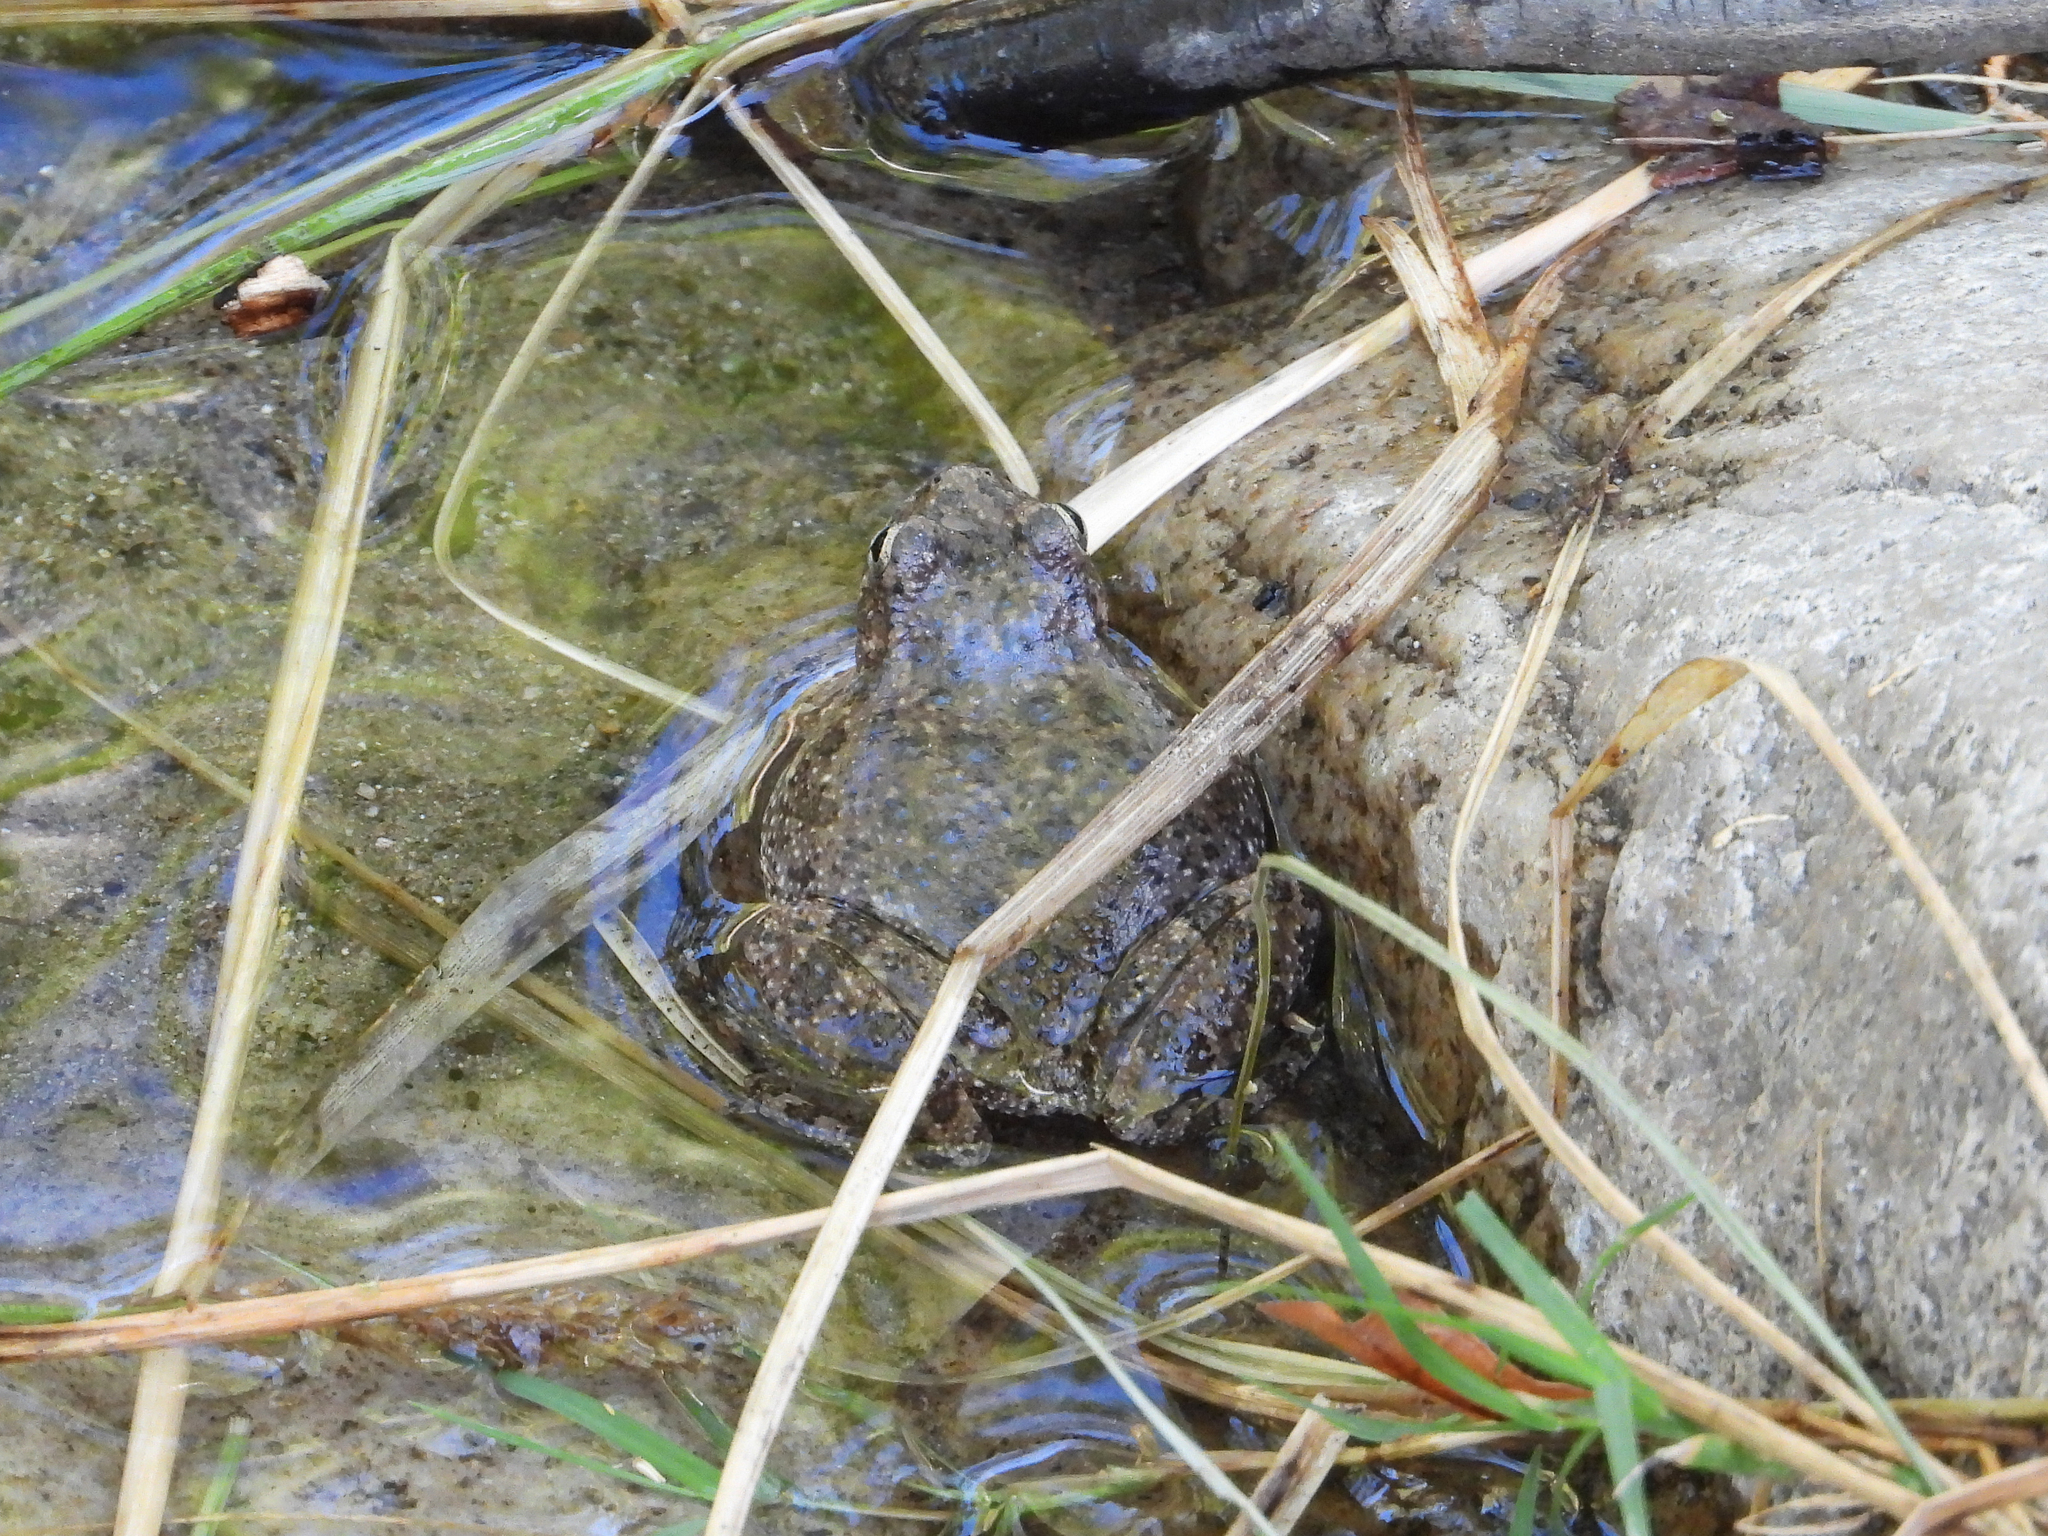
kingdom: Animalia
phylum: Chordata
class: Amphibia
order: Anura
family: Hylidae
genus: Dryophytes
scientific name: Dryophytes arenicolor
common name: Canyon treefrog
